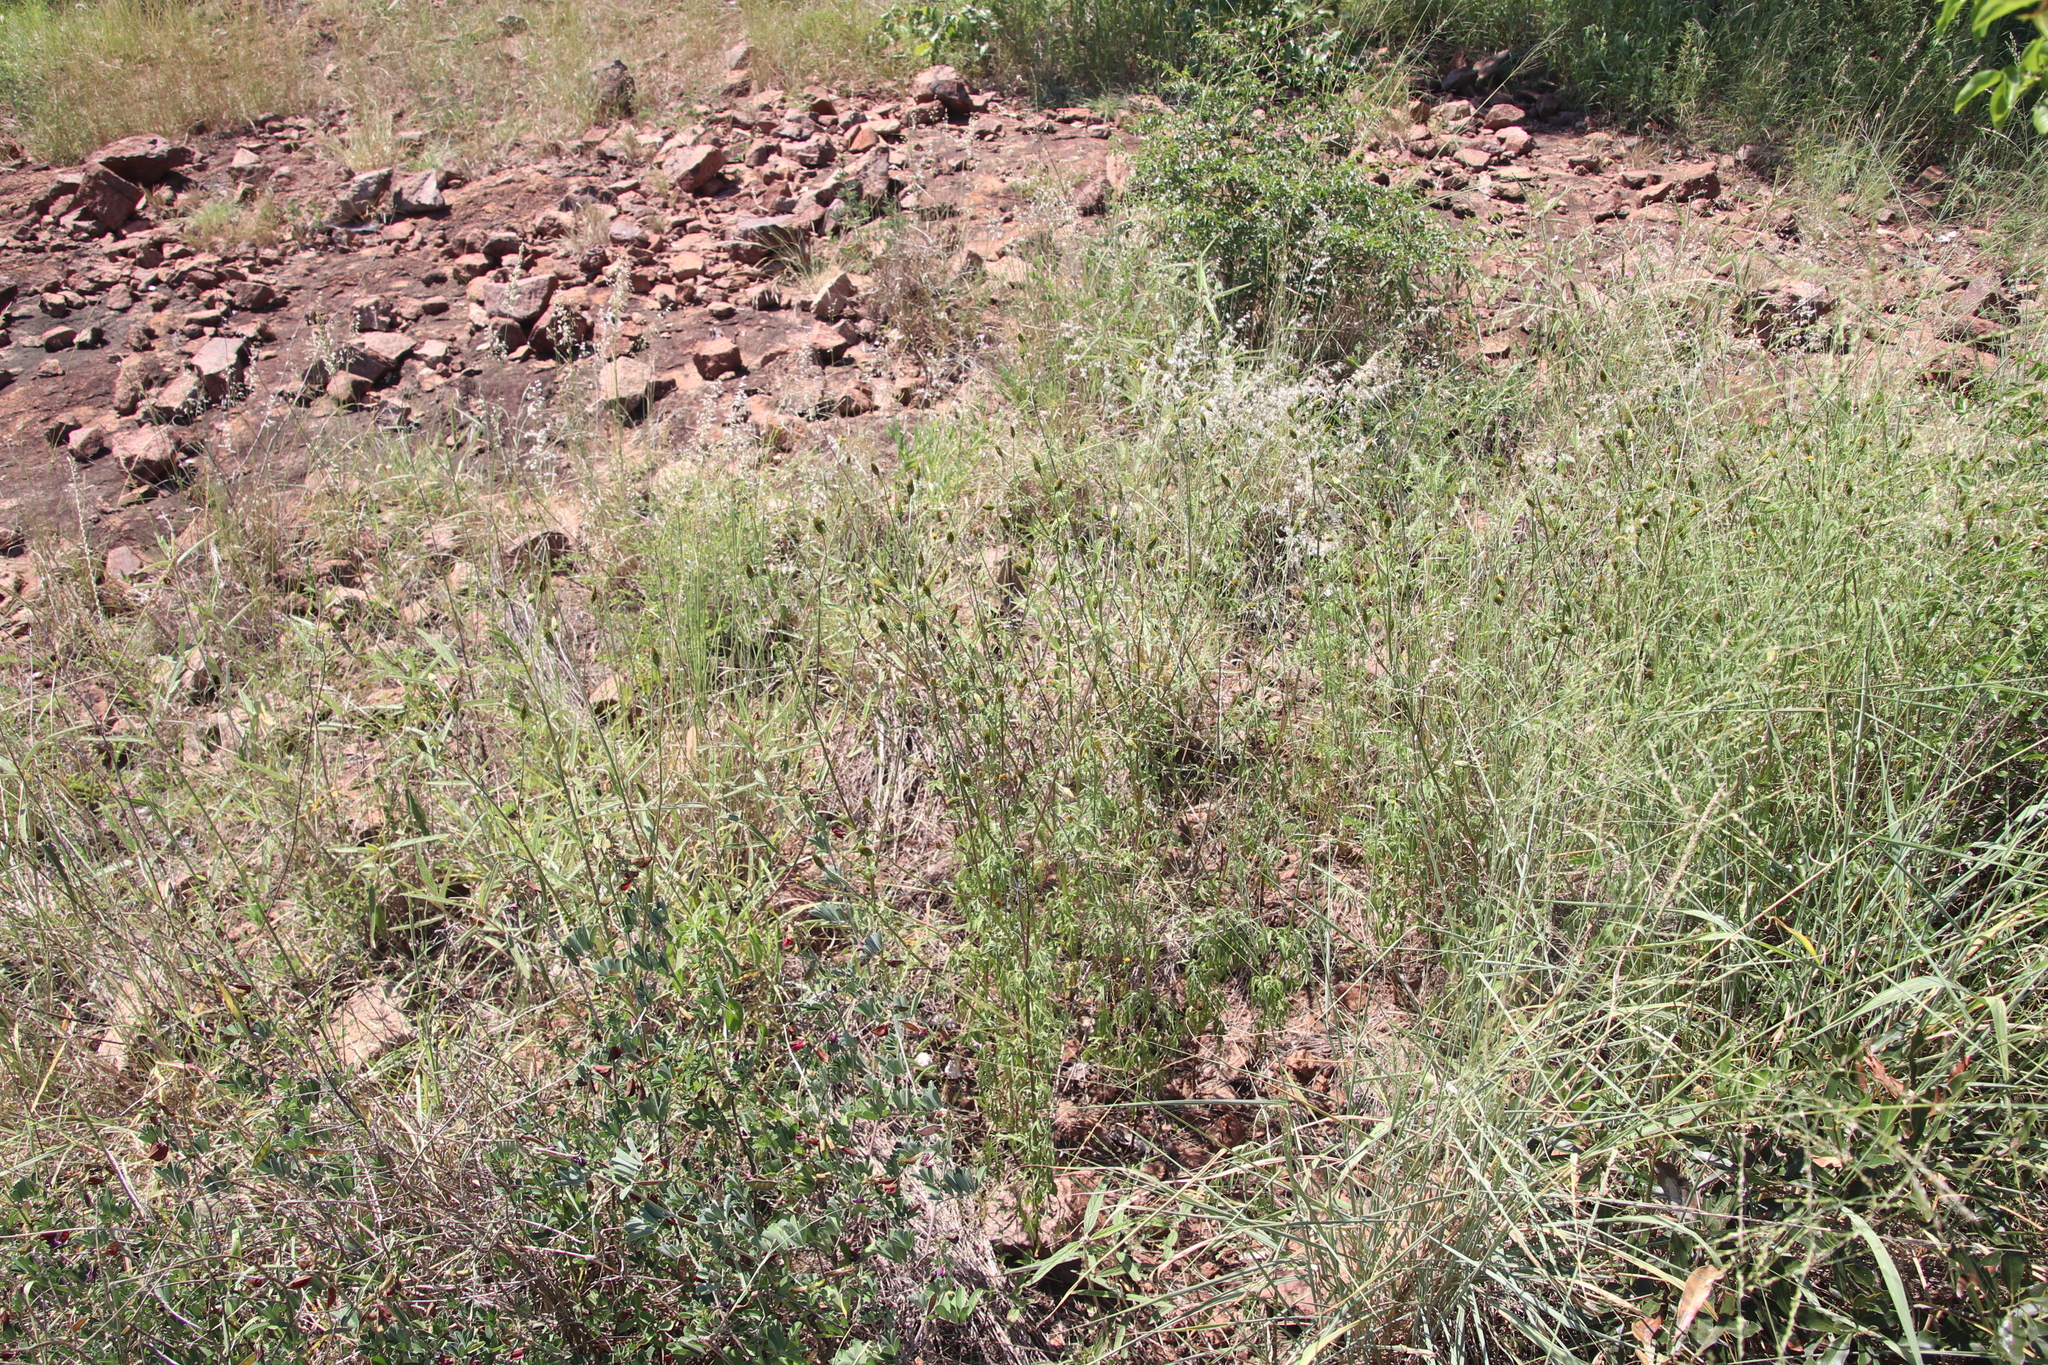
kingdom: Plantae
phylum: Tracheophyta
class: Magnoliopsida
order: Asterales
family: Asteraceae
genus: Bidens
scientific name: Bidens bipinnata
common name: Spanish-needles
